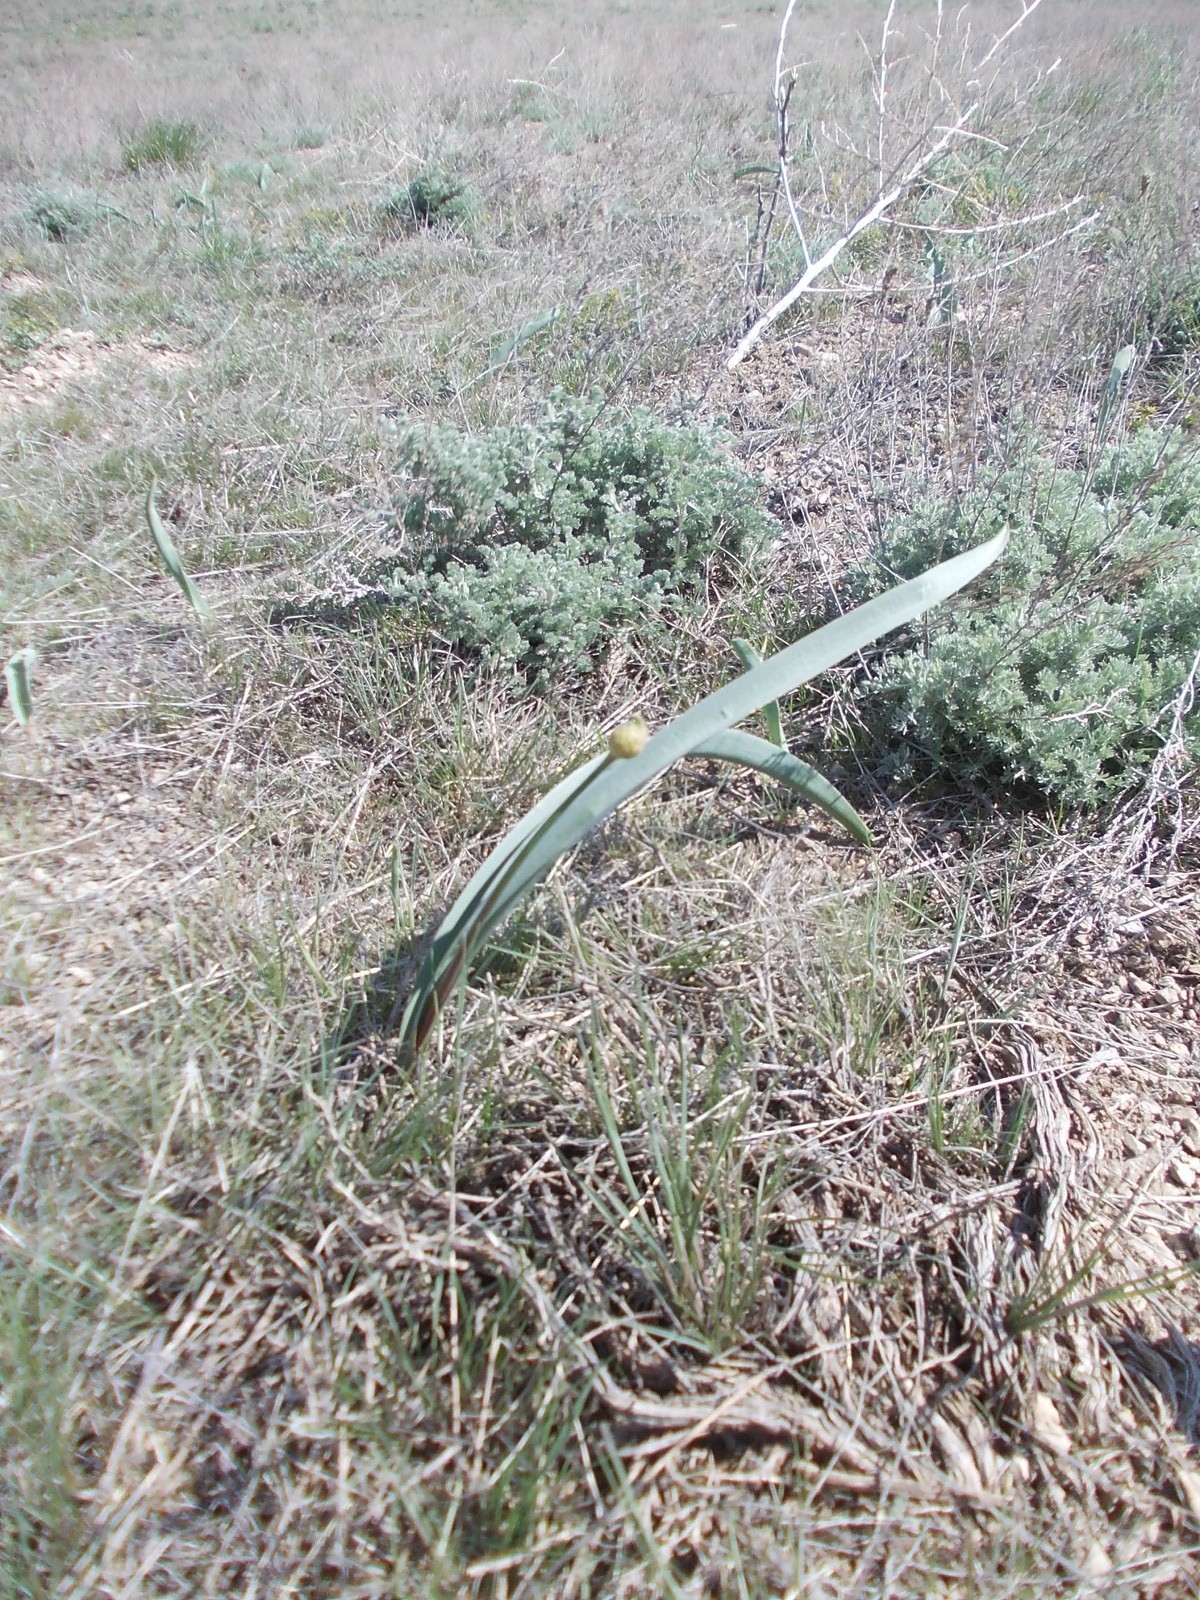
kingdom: Plantae
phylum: Tracheophyta
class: Liliopsida
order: Asparagales
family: Amaryllidaceae
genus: Allium
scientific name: Allium tulipifolium
